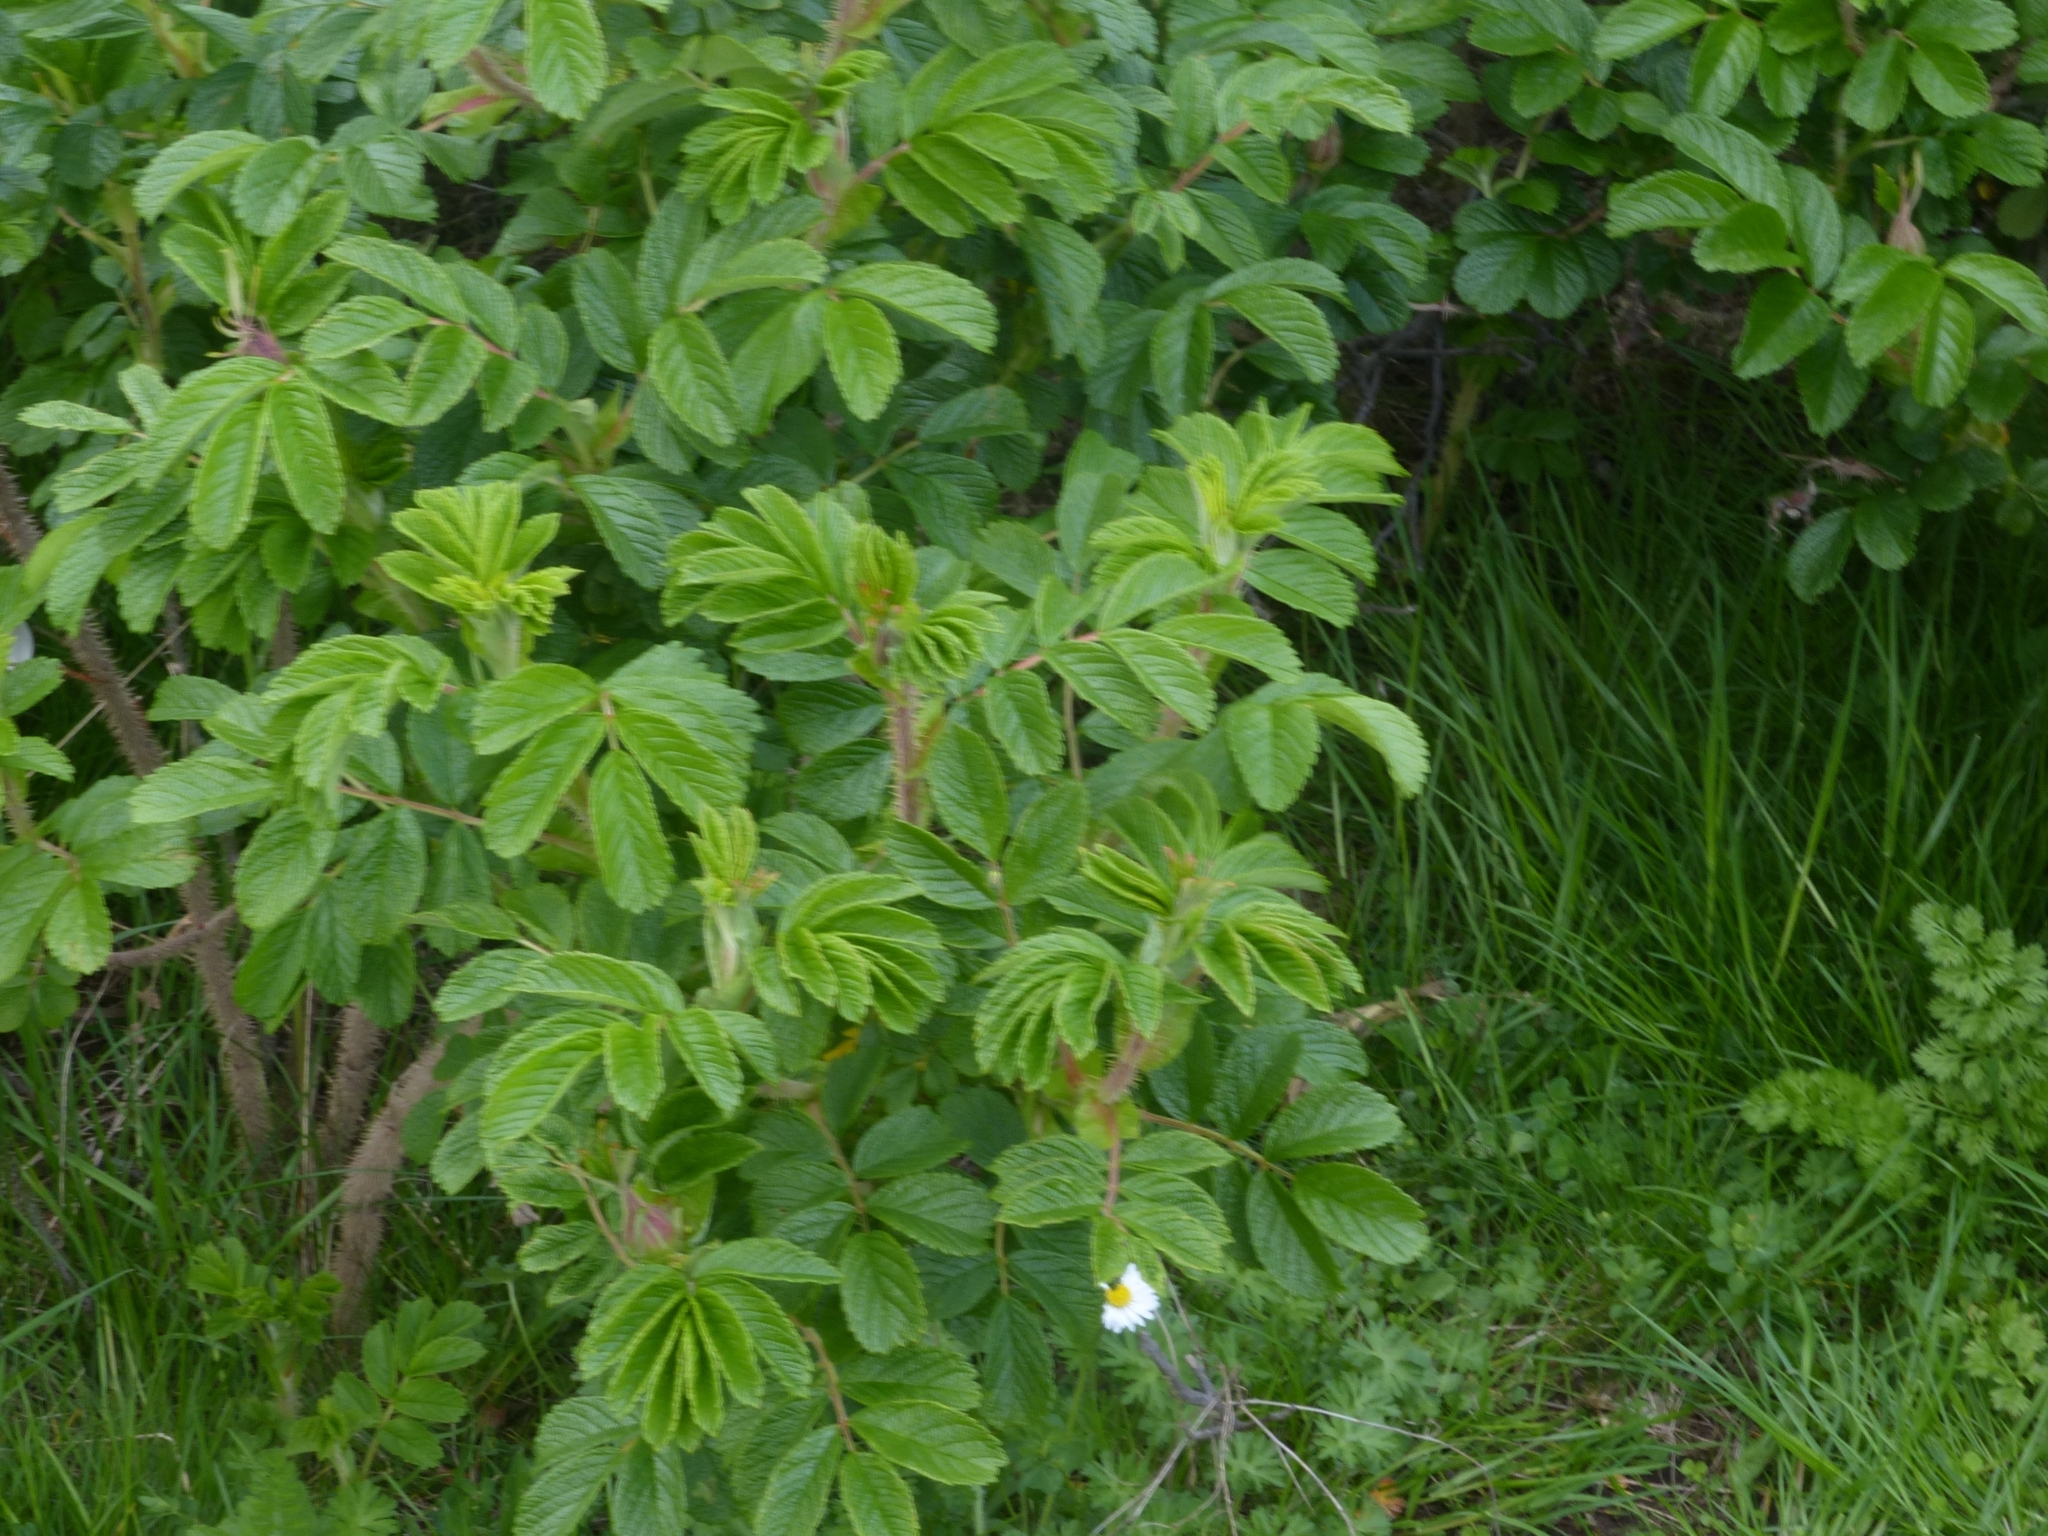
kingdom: Plantae
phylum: Tracheophyta
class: Magnoliopsida
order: Rosales
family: Rosaceae
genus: Rosa
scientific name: Rosa rugosa
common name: Japanese rose
